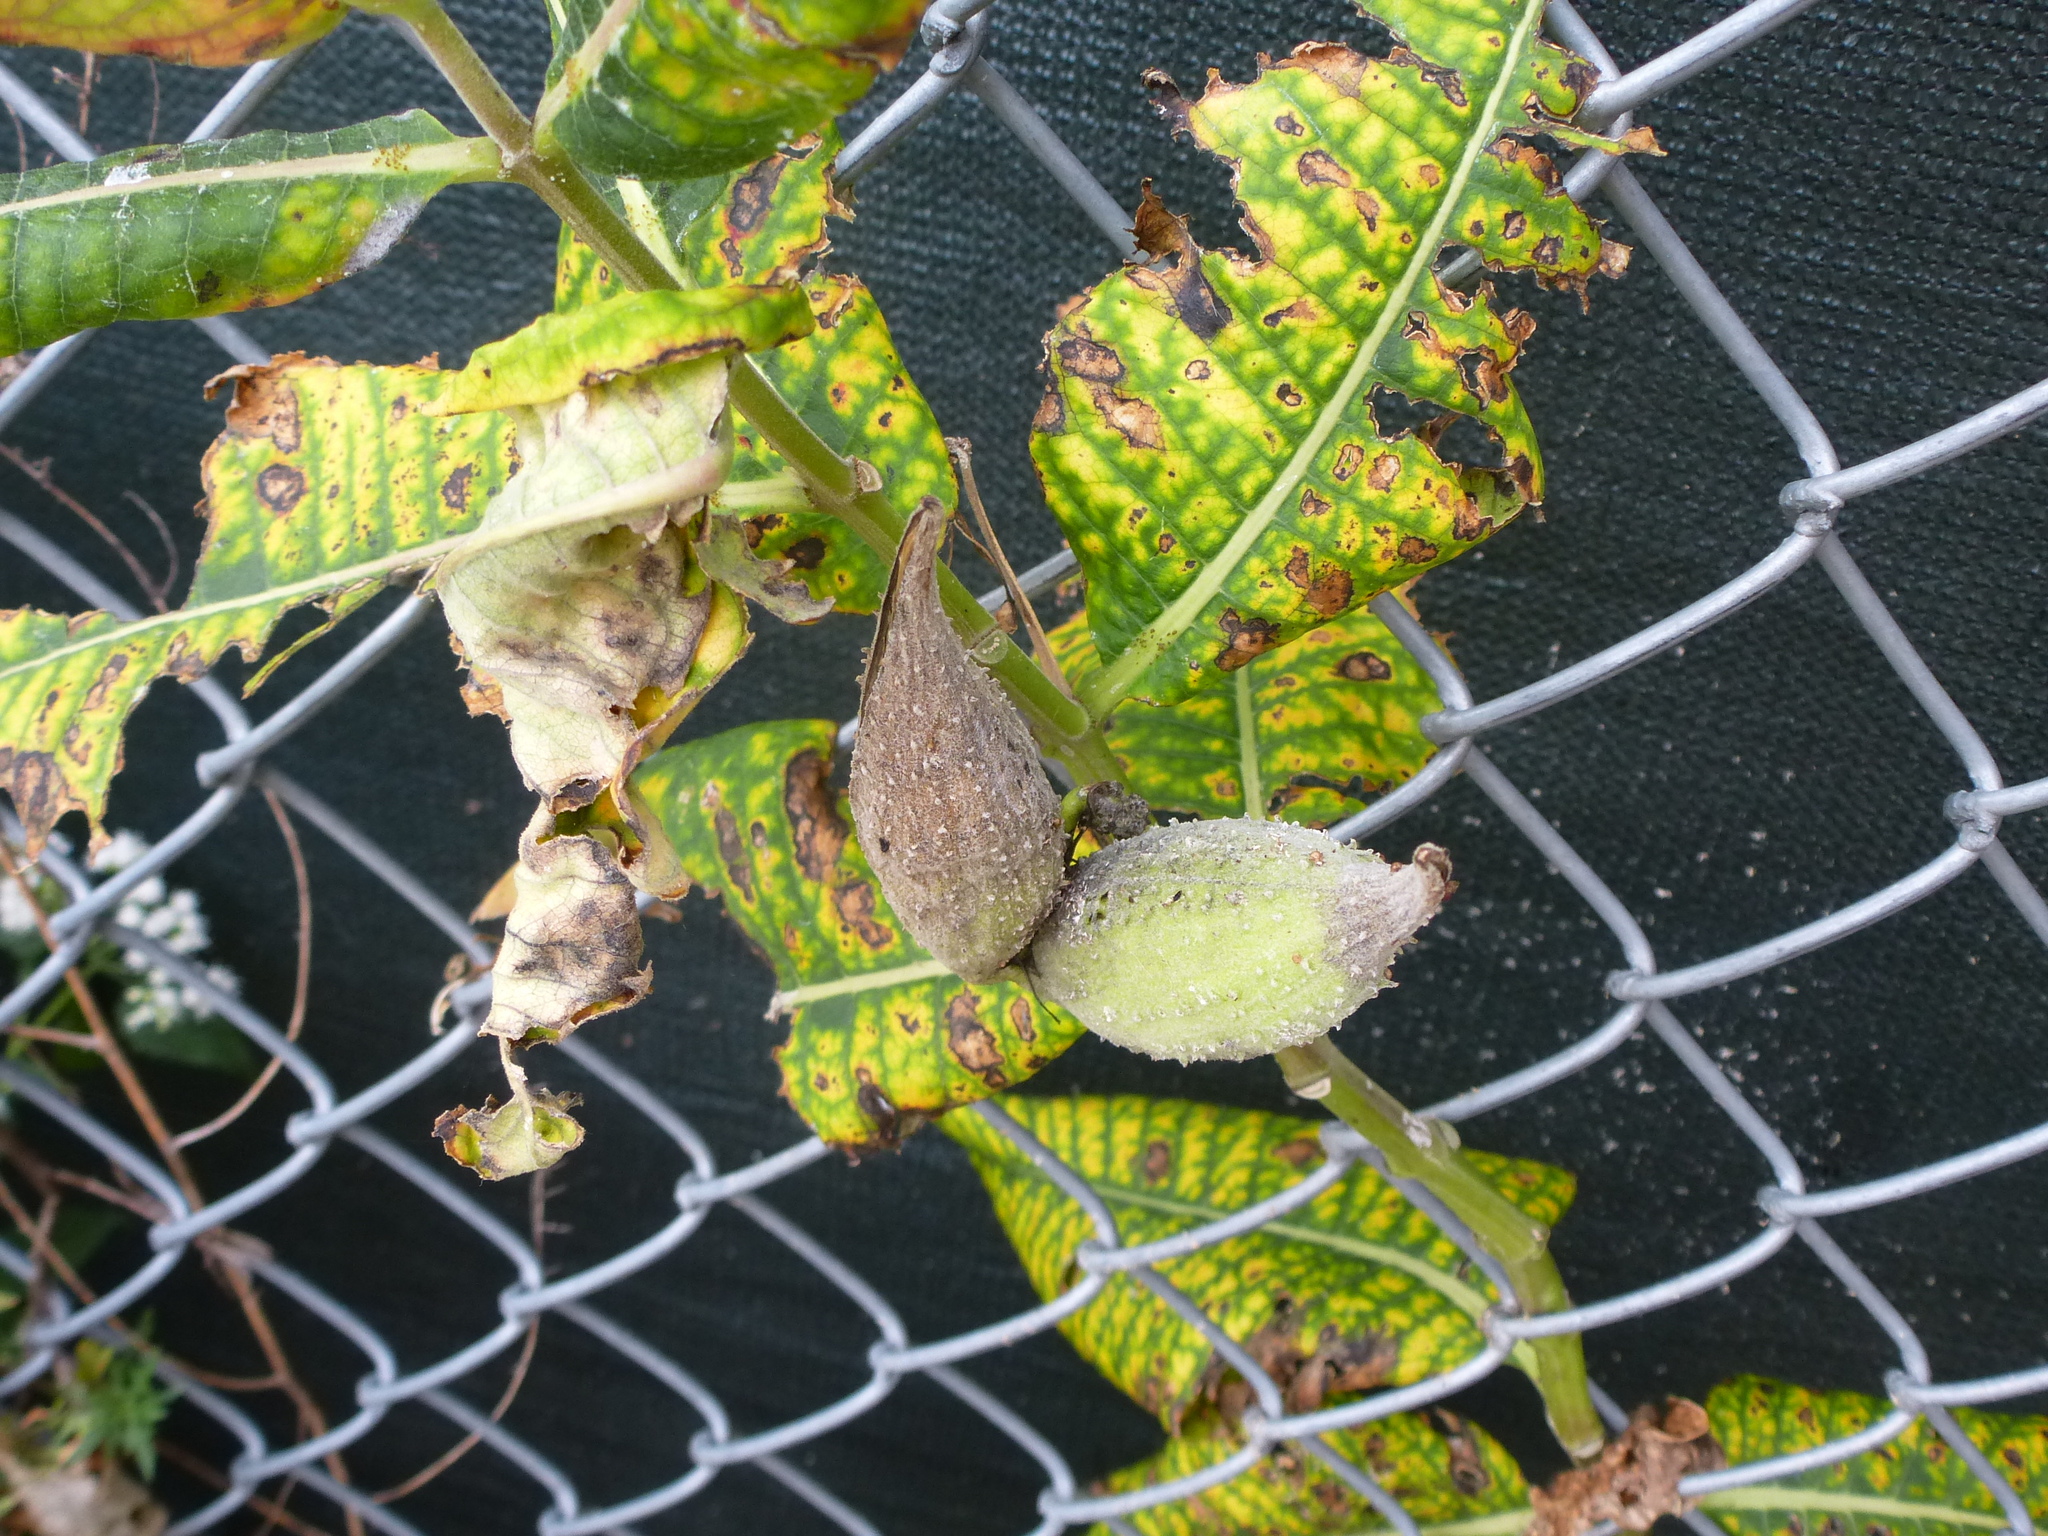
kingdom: Plantae
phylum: Tracheophyta
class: Magnoliopsida
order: Gentianales
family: Apocynaceae
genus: Asclepias
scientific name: Asclepias syriaca
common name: Common milkweed
